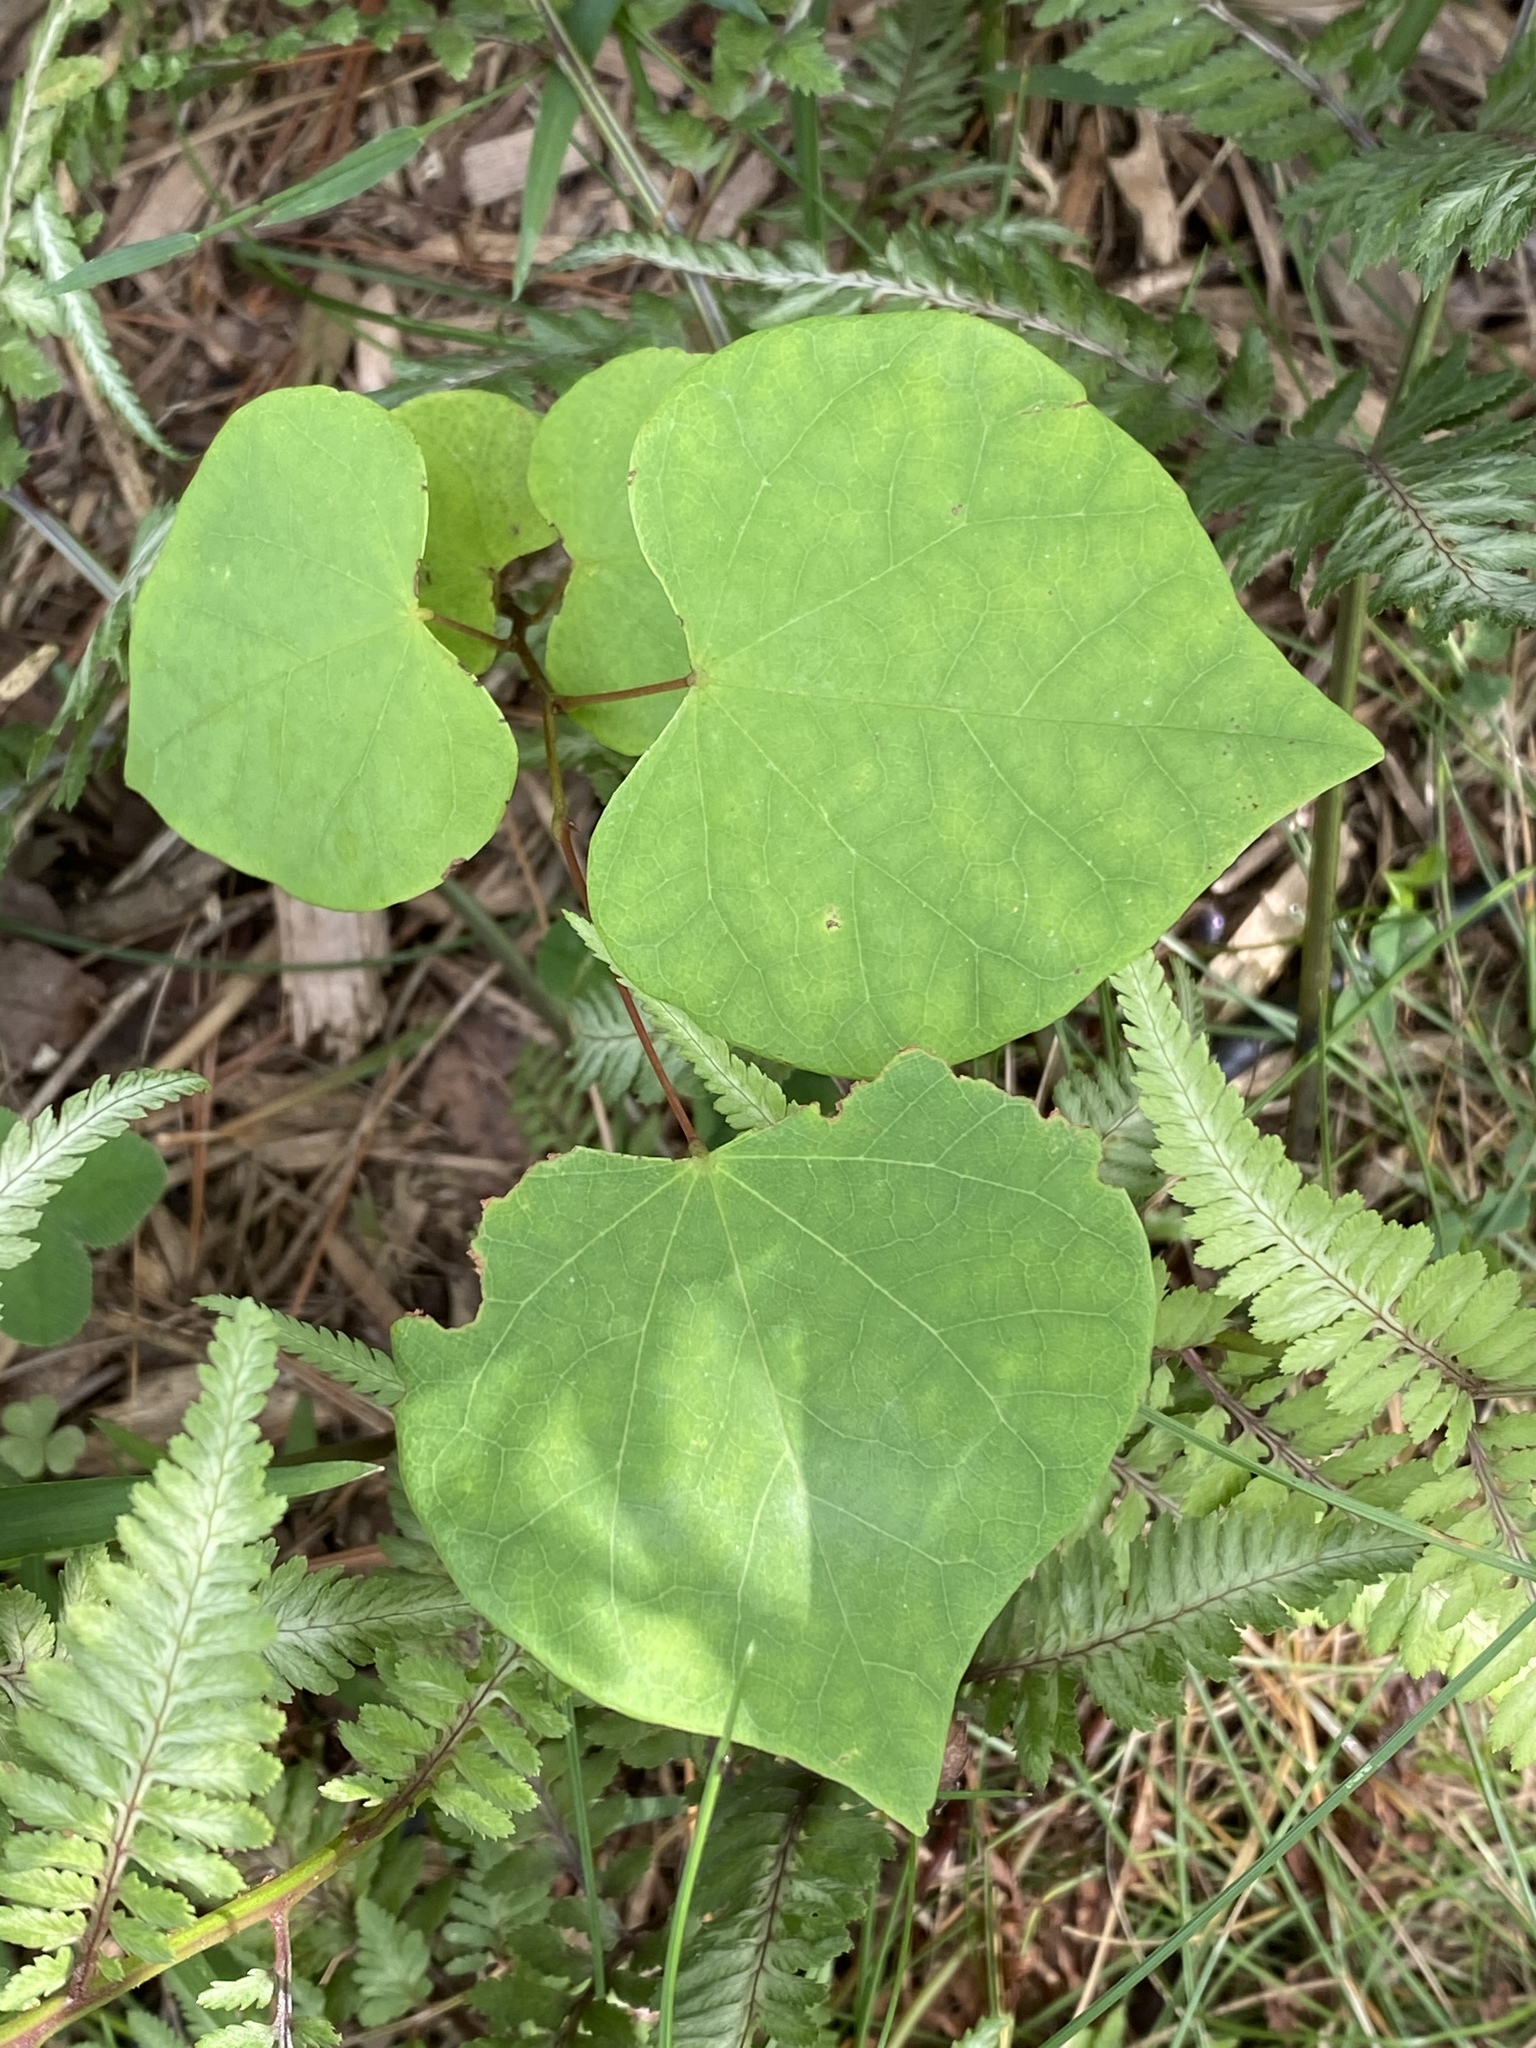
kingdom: Plantae
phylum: Tracheophyta
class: Magnoliopsida
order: Fabales
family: Fabaceae
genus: Cercis
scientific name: Cercis canadensis
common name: Eastern redbud
